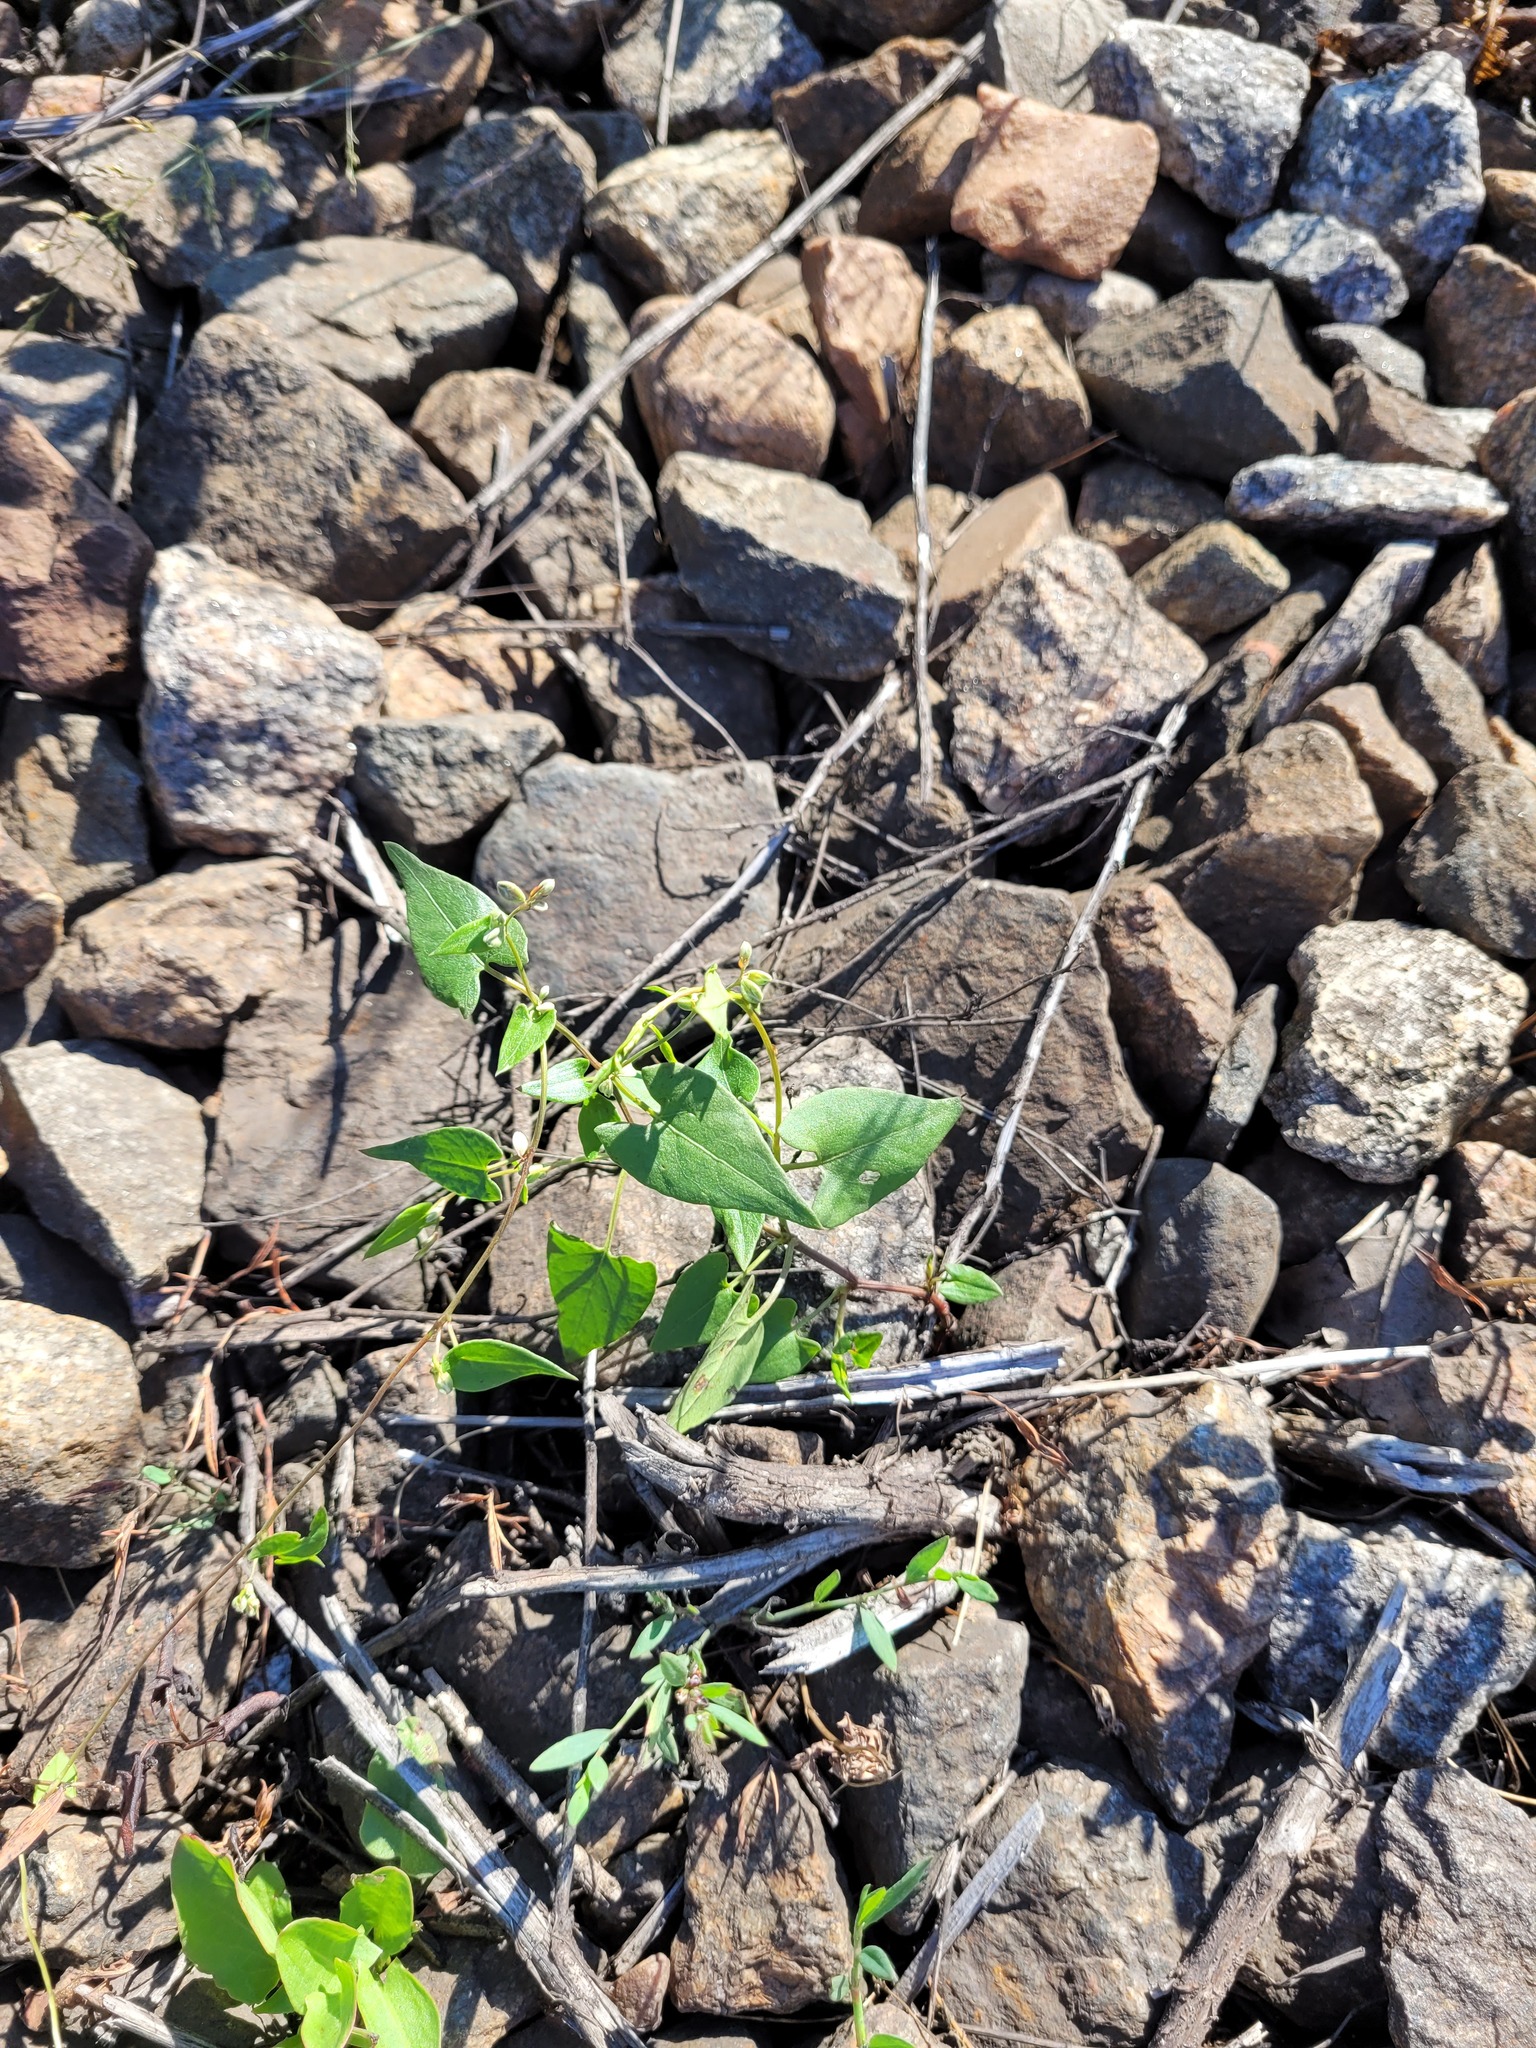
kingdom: Plantae
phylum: Tracheophyta
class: Magnoliopsida
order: Caryophyllales
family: Polygonaceae
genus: Fallopia
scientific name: Fallopia convolvulus
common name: Black bindweed
